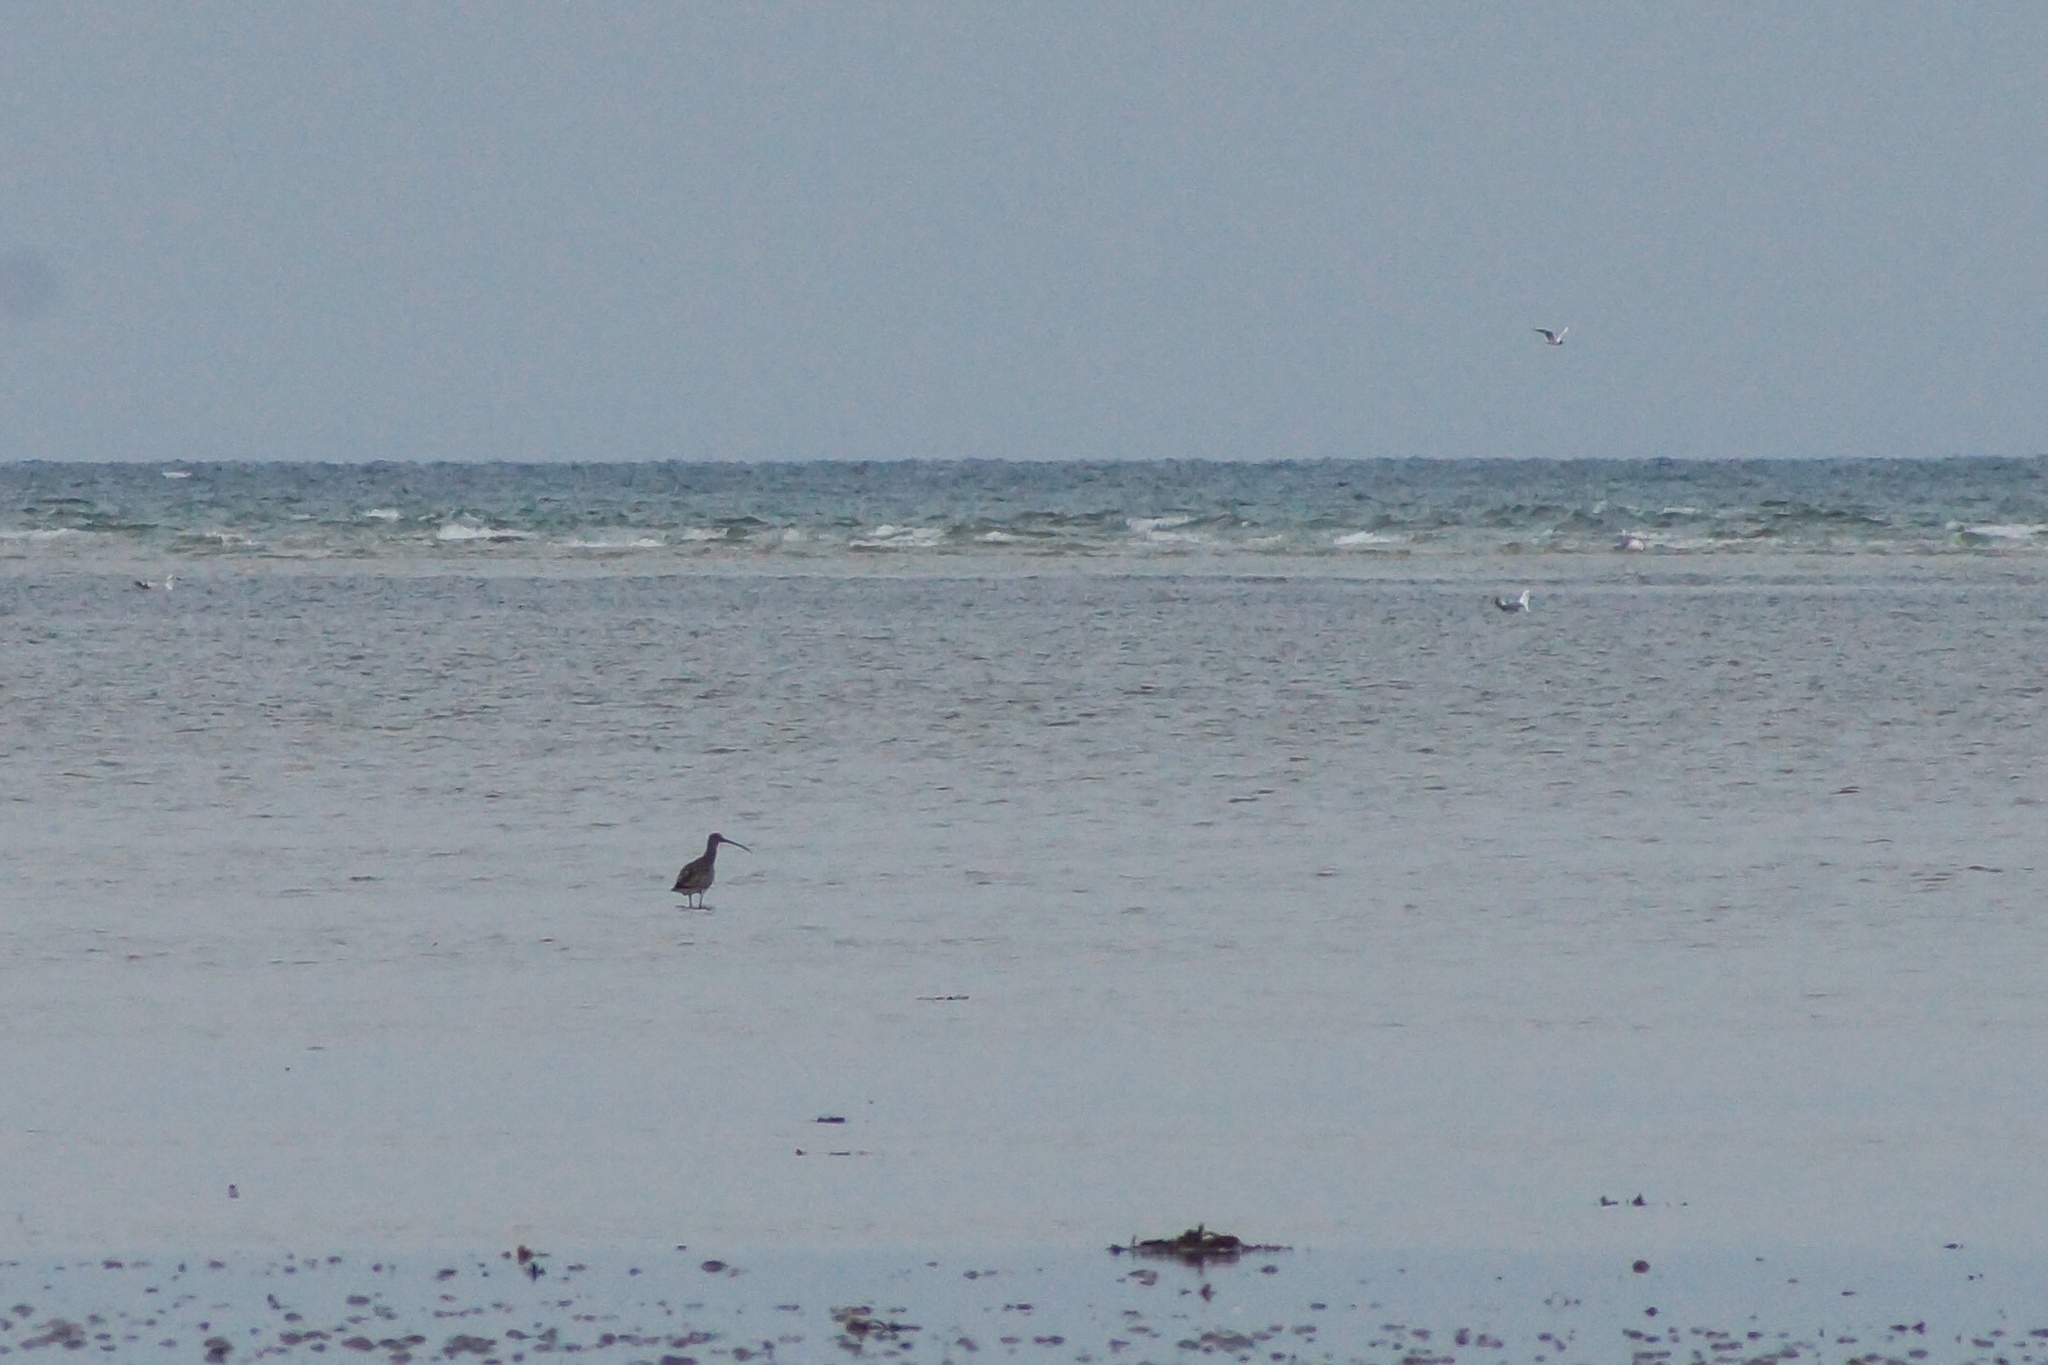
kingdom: Animalia
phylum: Chordata
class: Aves
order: Charadriiformes
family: Scolopacidae
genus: Numenius
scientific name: Numenius arquata
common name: Eurasian curlew
